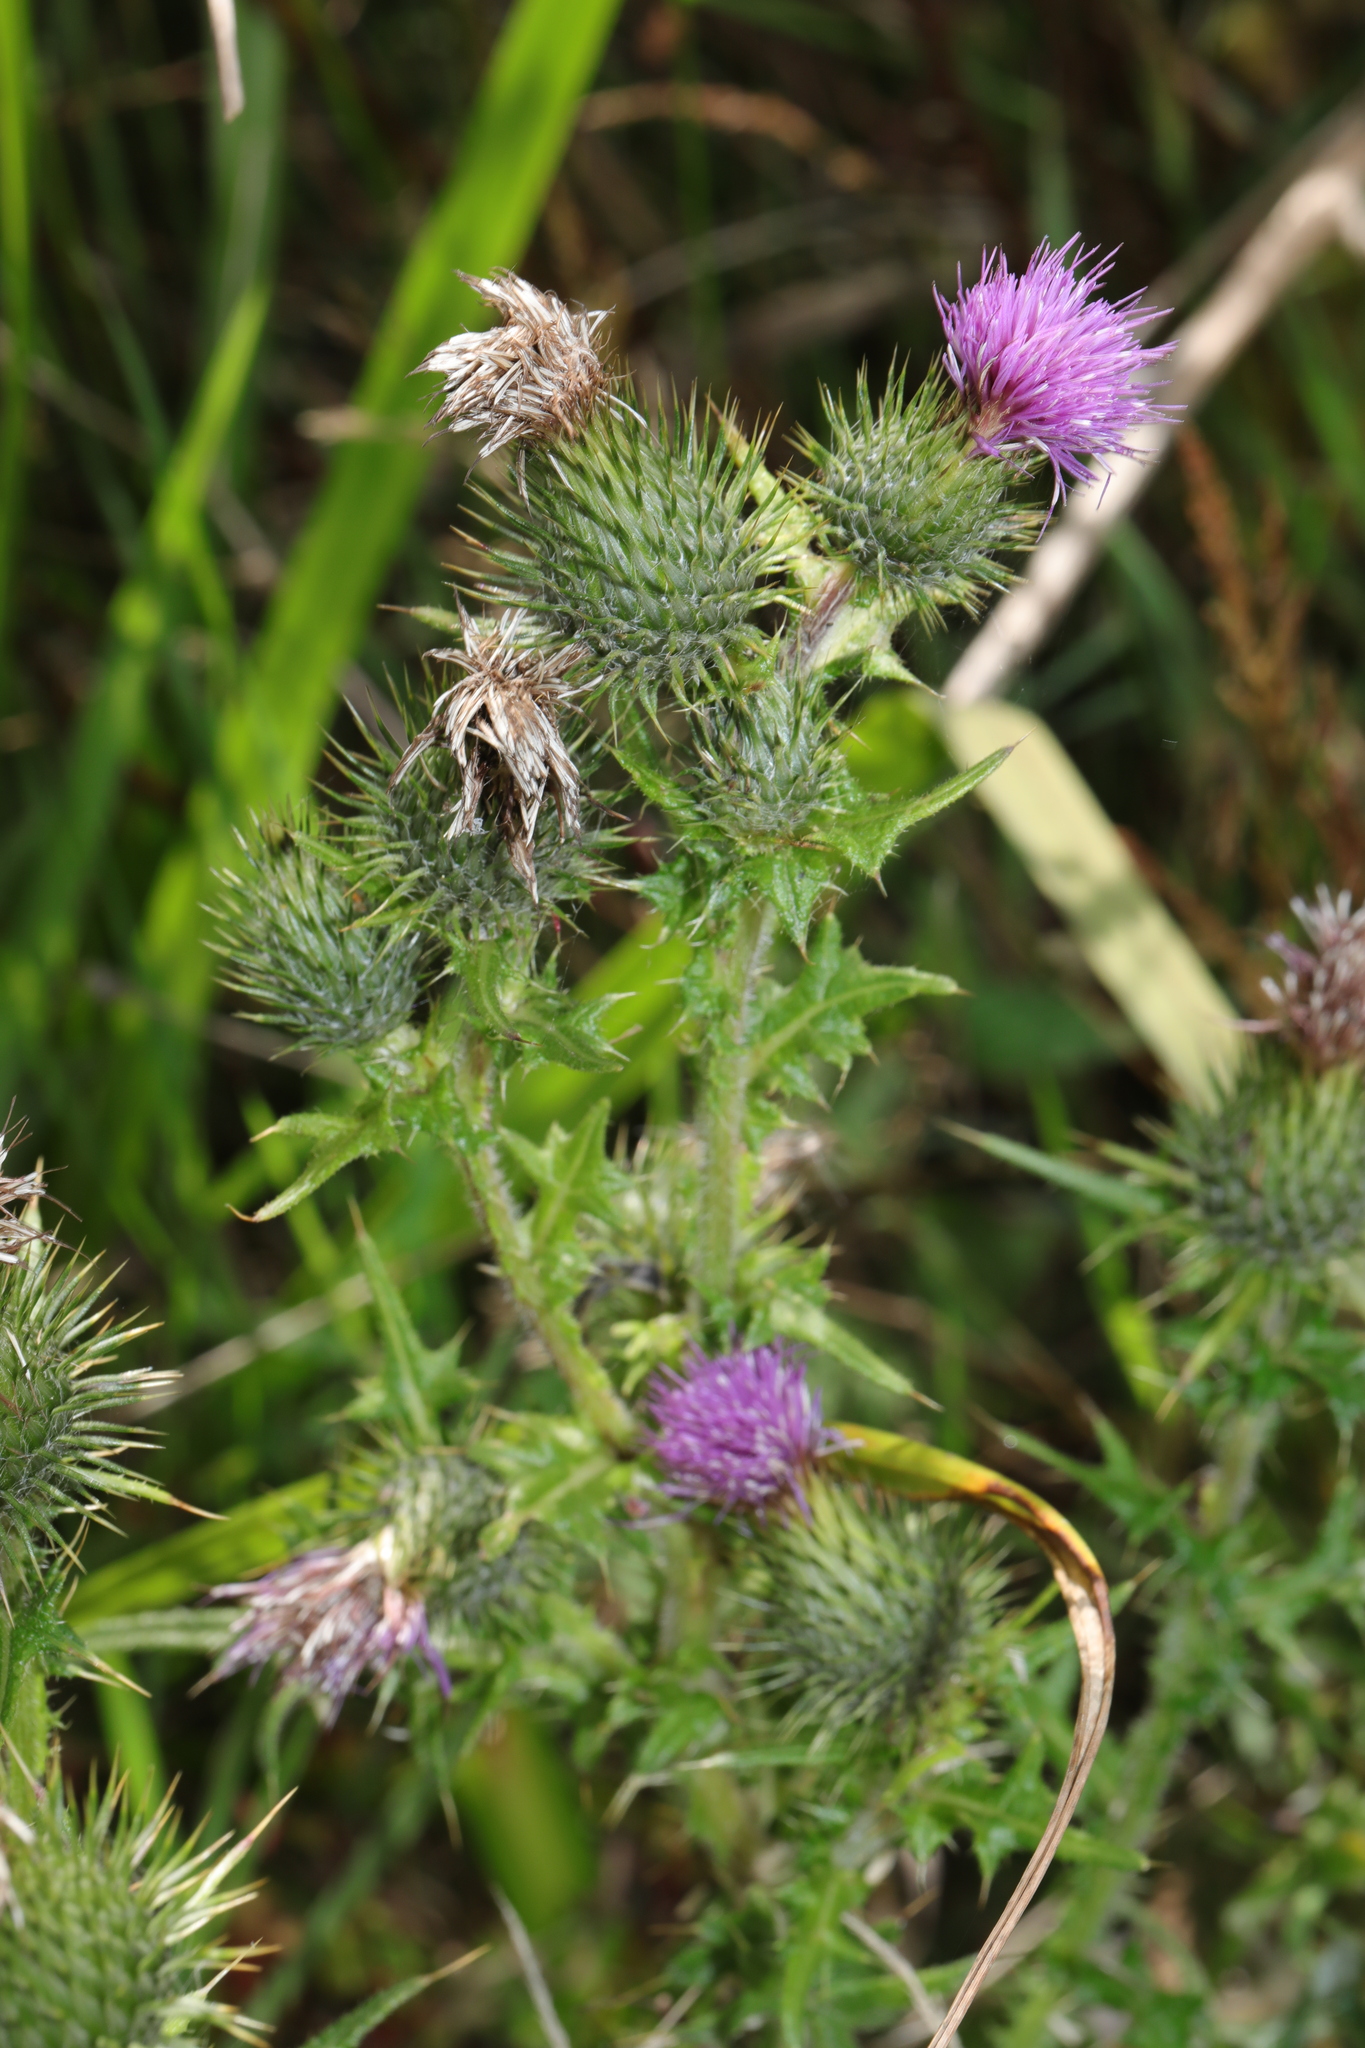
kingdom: Plantae
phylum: Tracheophyta
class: Magnoliopsida
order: Asterales
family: Asteraceae
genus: Cirsium
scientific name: Cirsium vulgare
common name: Bull thistle
